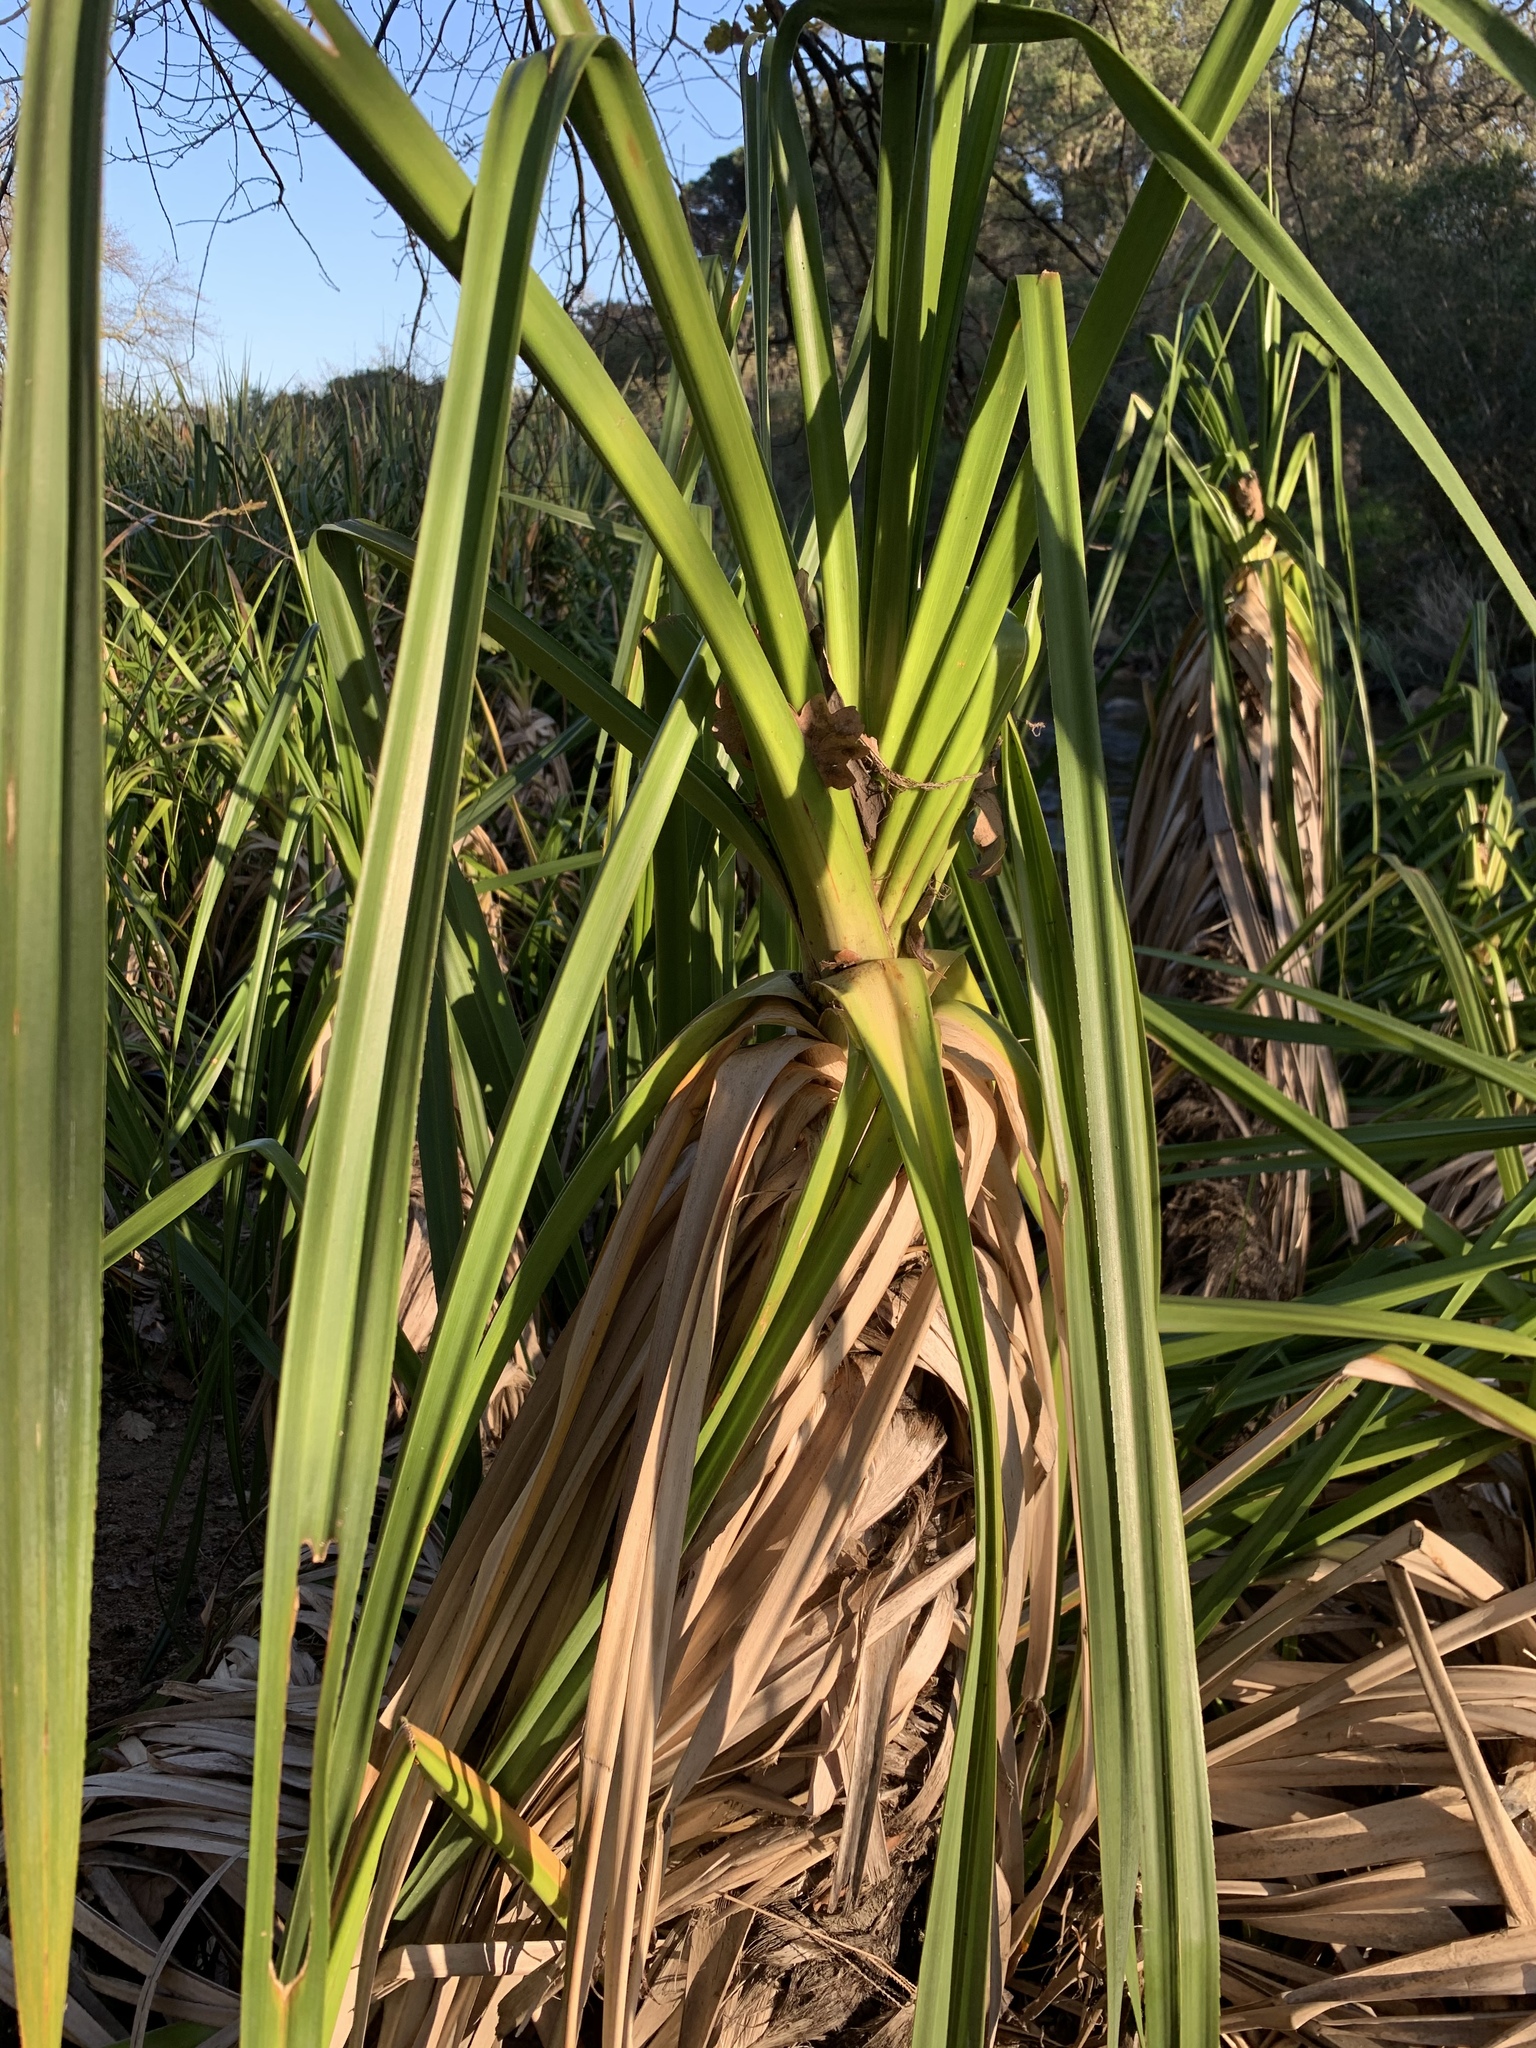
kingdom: Plantae
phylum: Tracheophyta
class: Liliopsida
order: Poales
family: Thurniaceae
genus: Prionium
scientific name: Prionium serratum
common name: Palmiet
